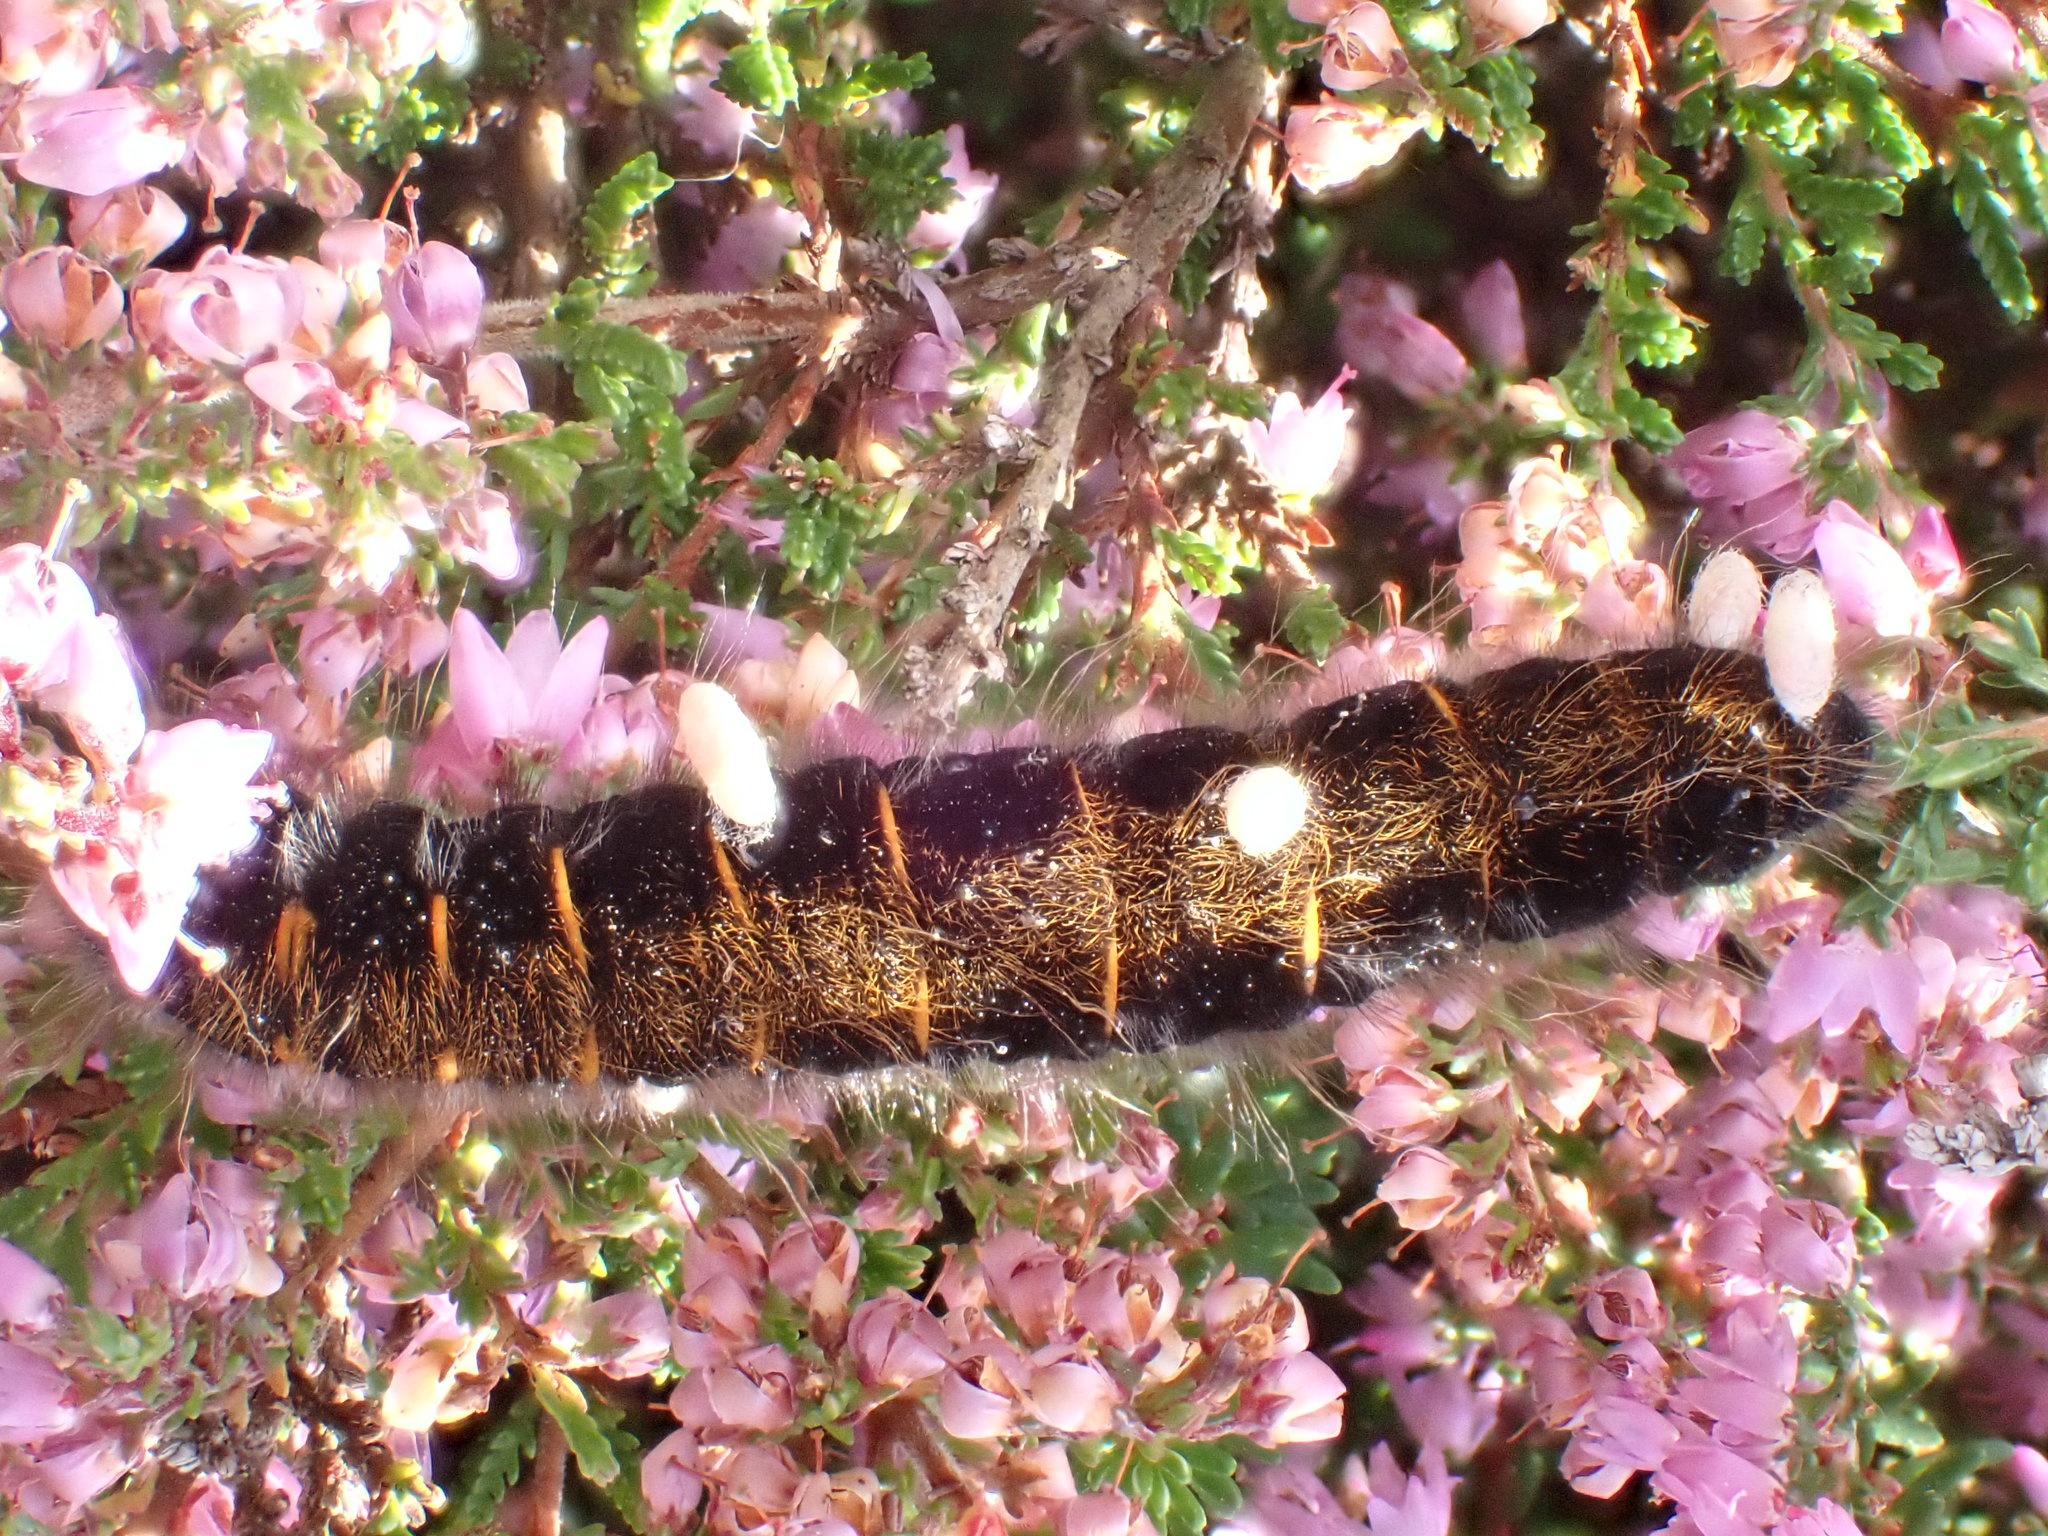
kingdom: Animalia
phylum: Arthropoda
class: Insecta
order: Lepidoptera
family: Lasiocampidae
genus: Macrothylacia
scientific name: Macrothylacia rubi
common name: Fox moth
